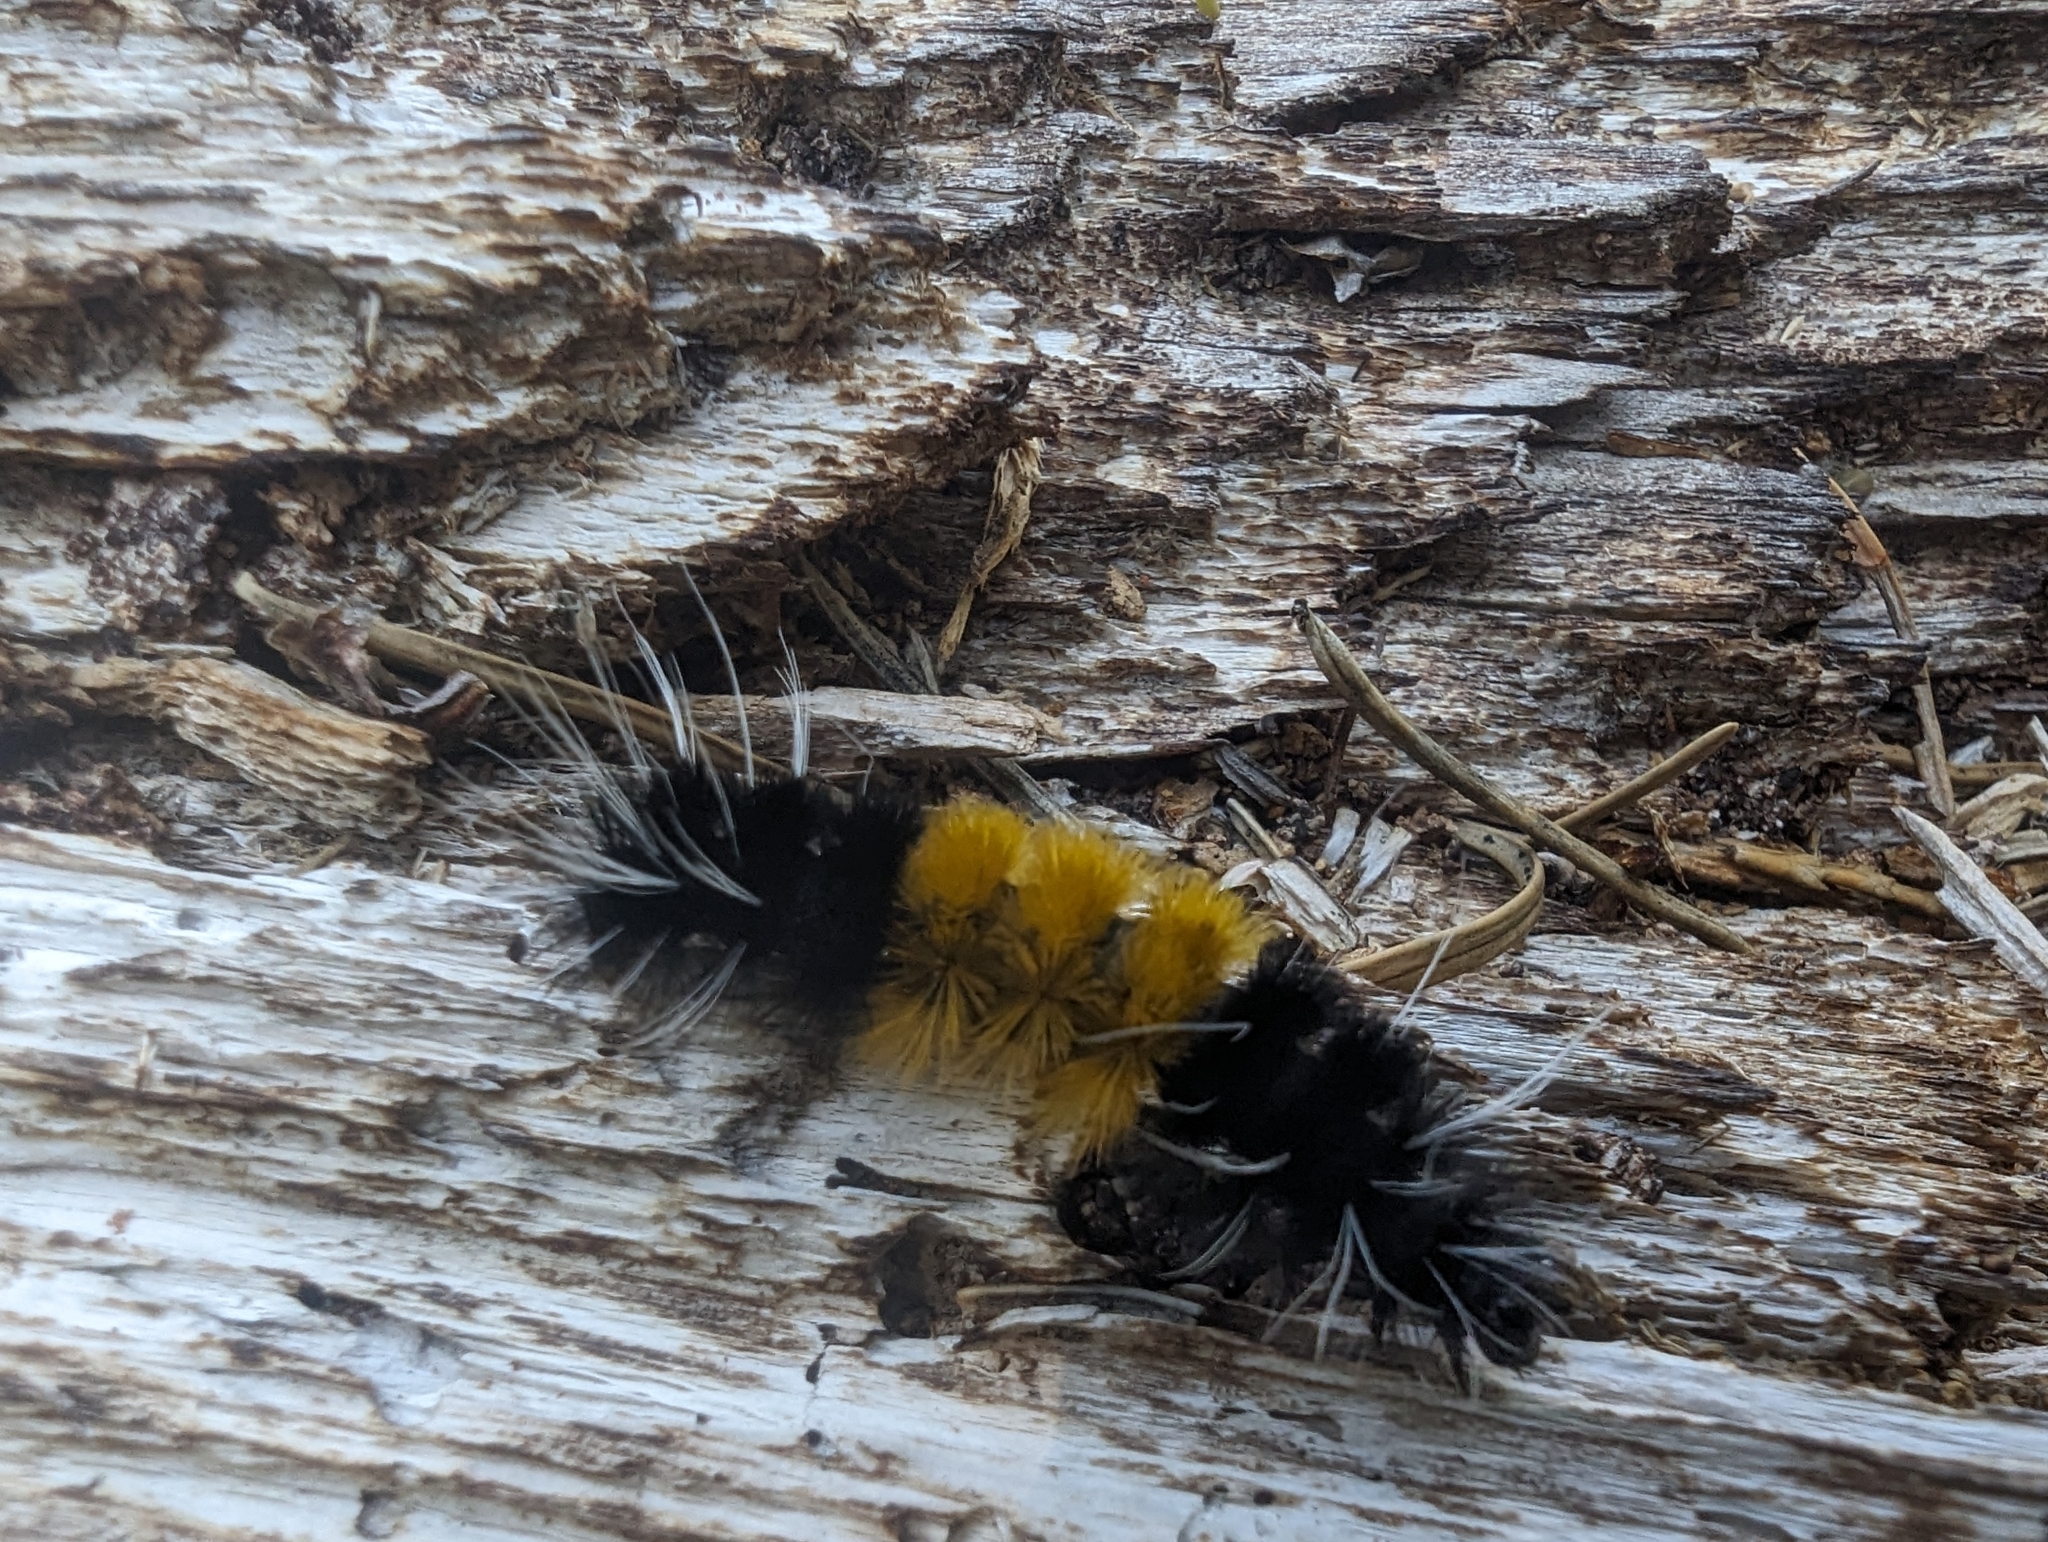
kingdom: Animalia
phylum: Arthropoda
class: Insecta
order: Lepidoptera
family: Erebidae
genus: Lophocampa
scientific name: Lophocampa maculata
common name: Spotted tussock moth
